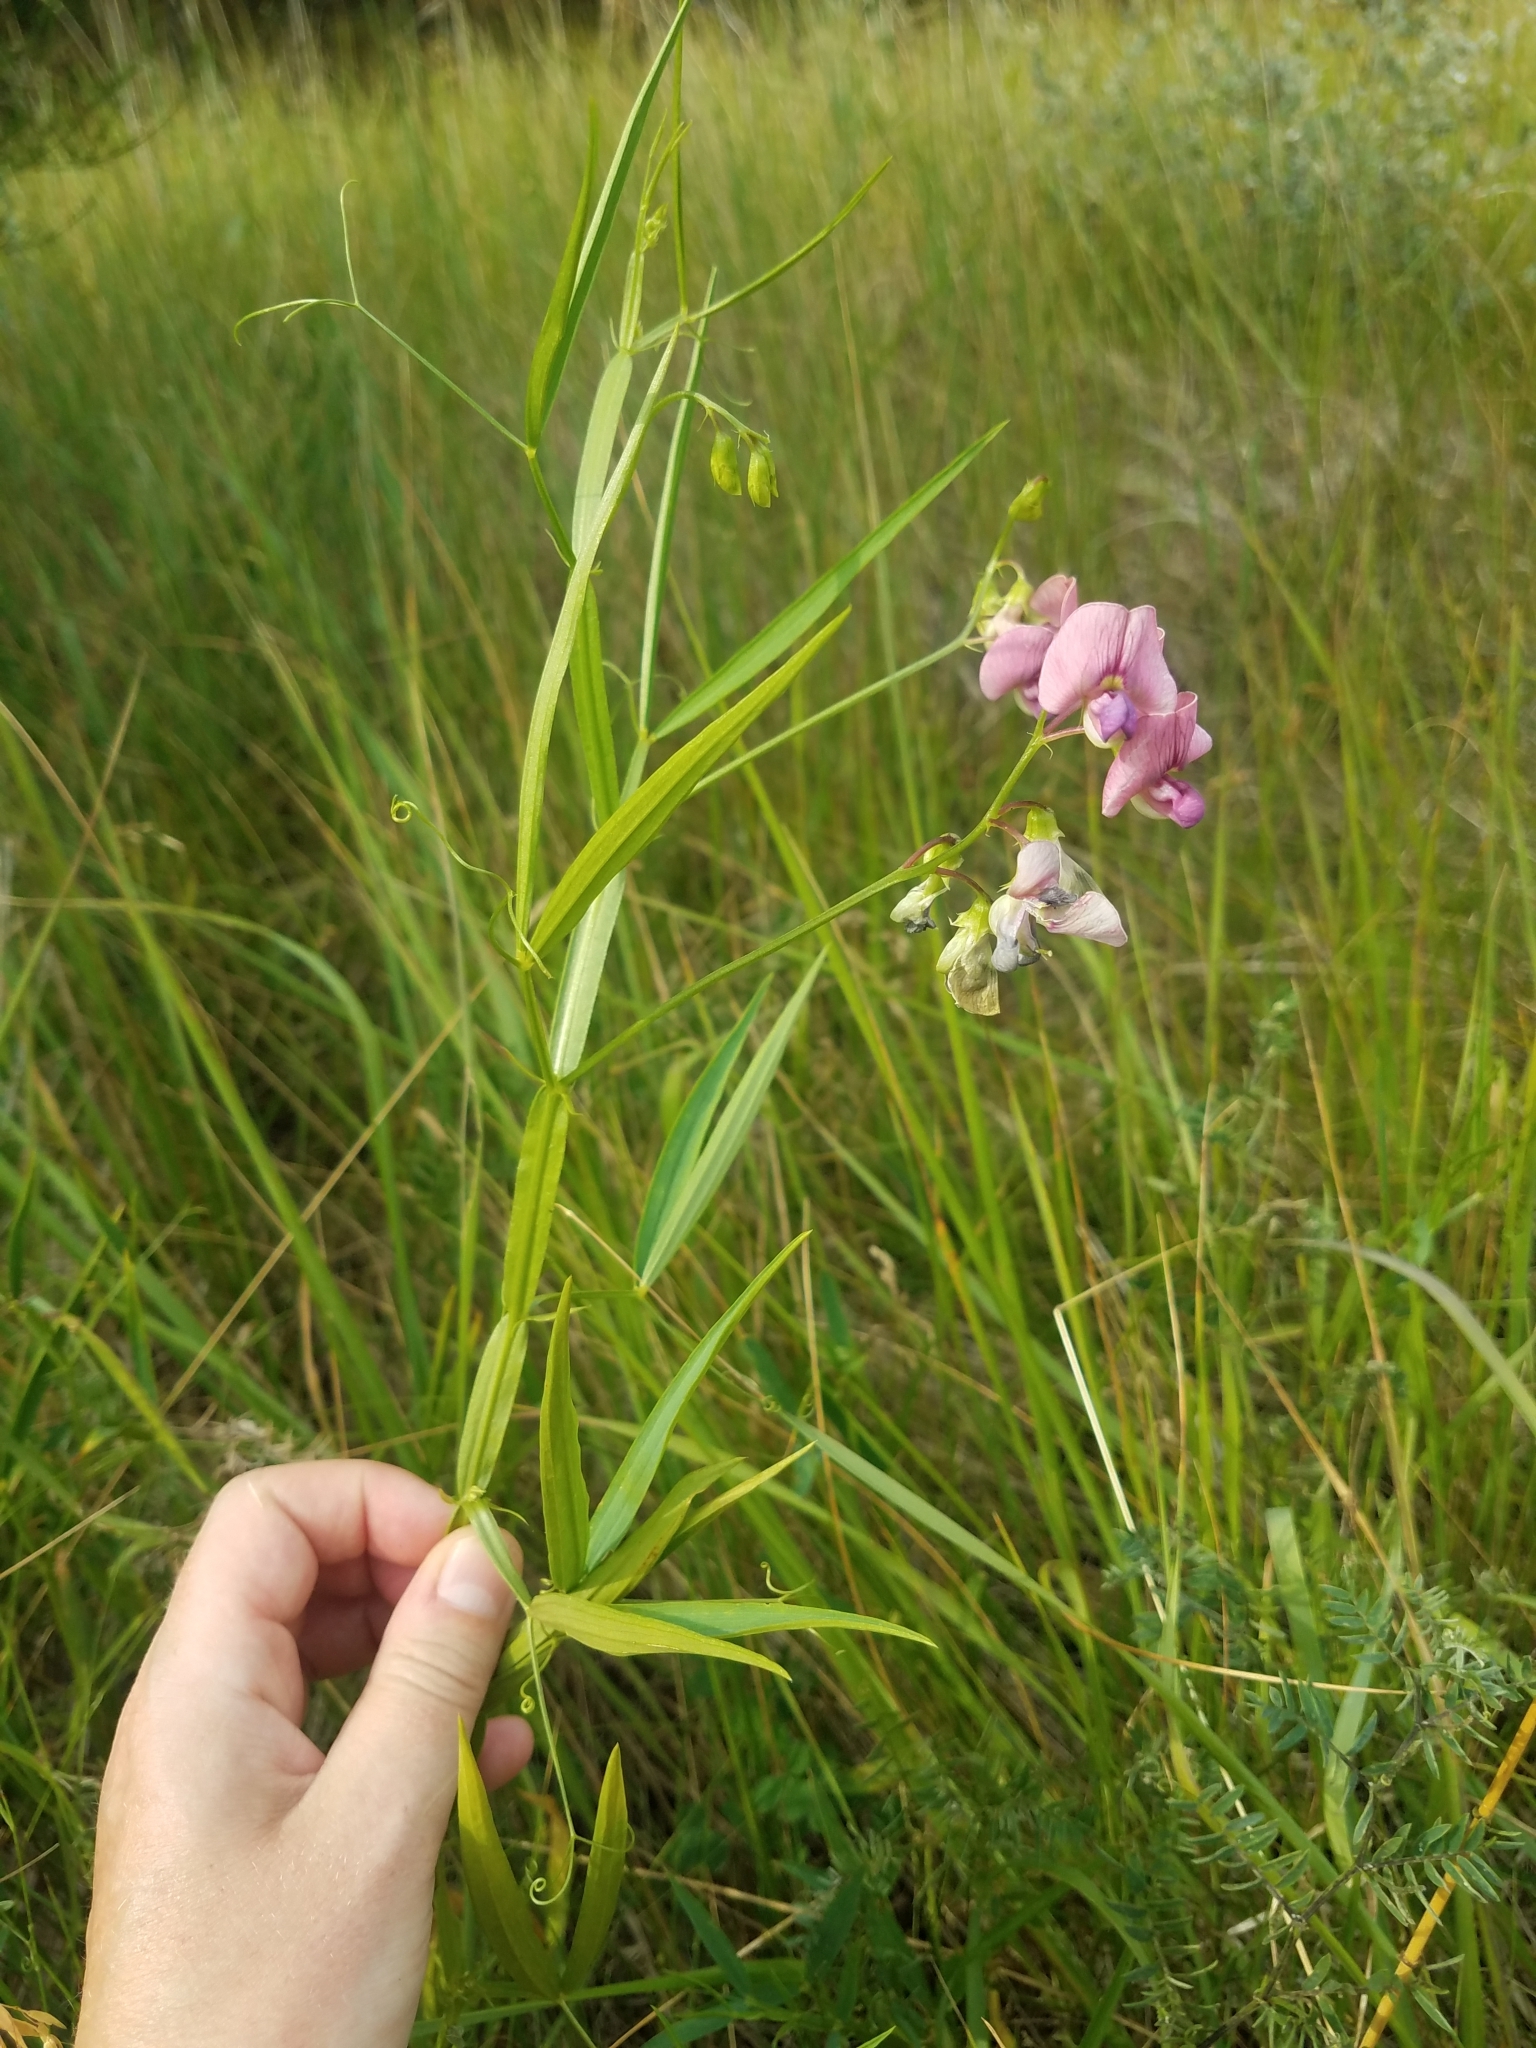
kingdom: Plantae
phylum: Tracheophyta
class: Magnoliopsida
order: Fabales
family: Fabaceae
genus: Lathyrus
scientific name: Lathyrus sylvestris
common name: Flat pea
